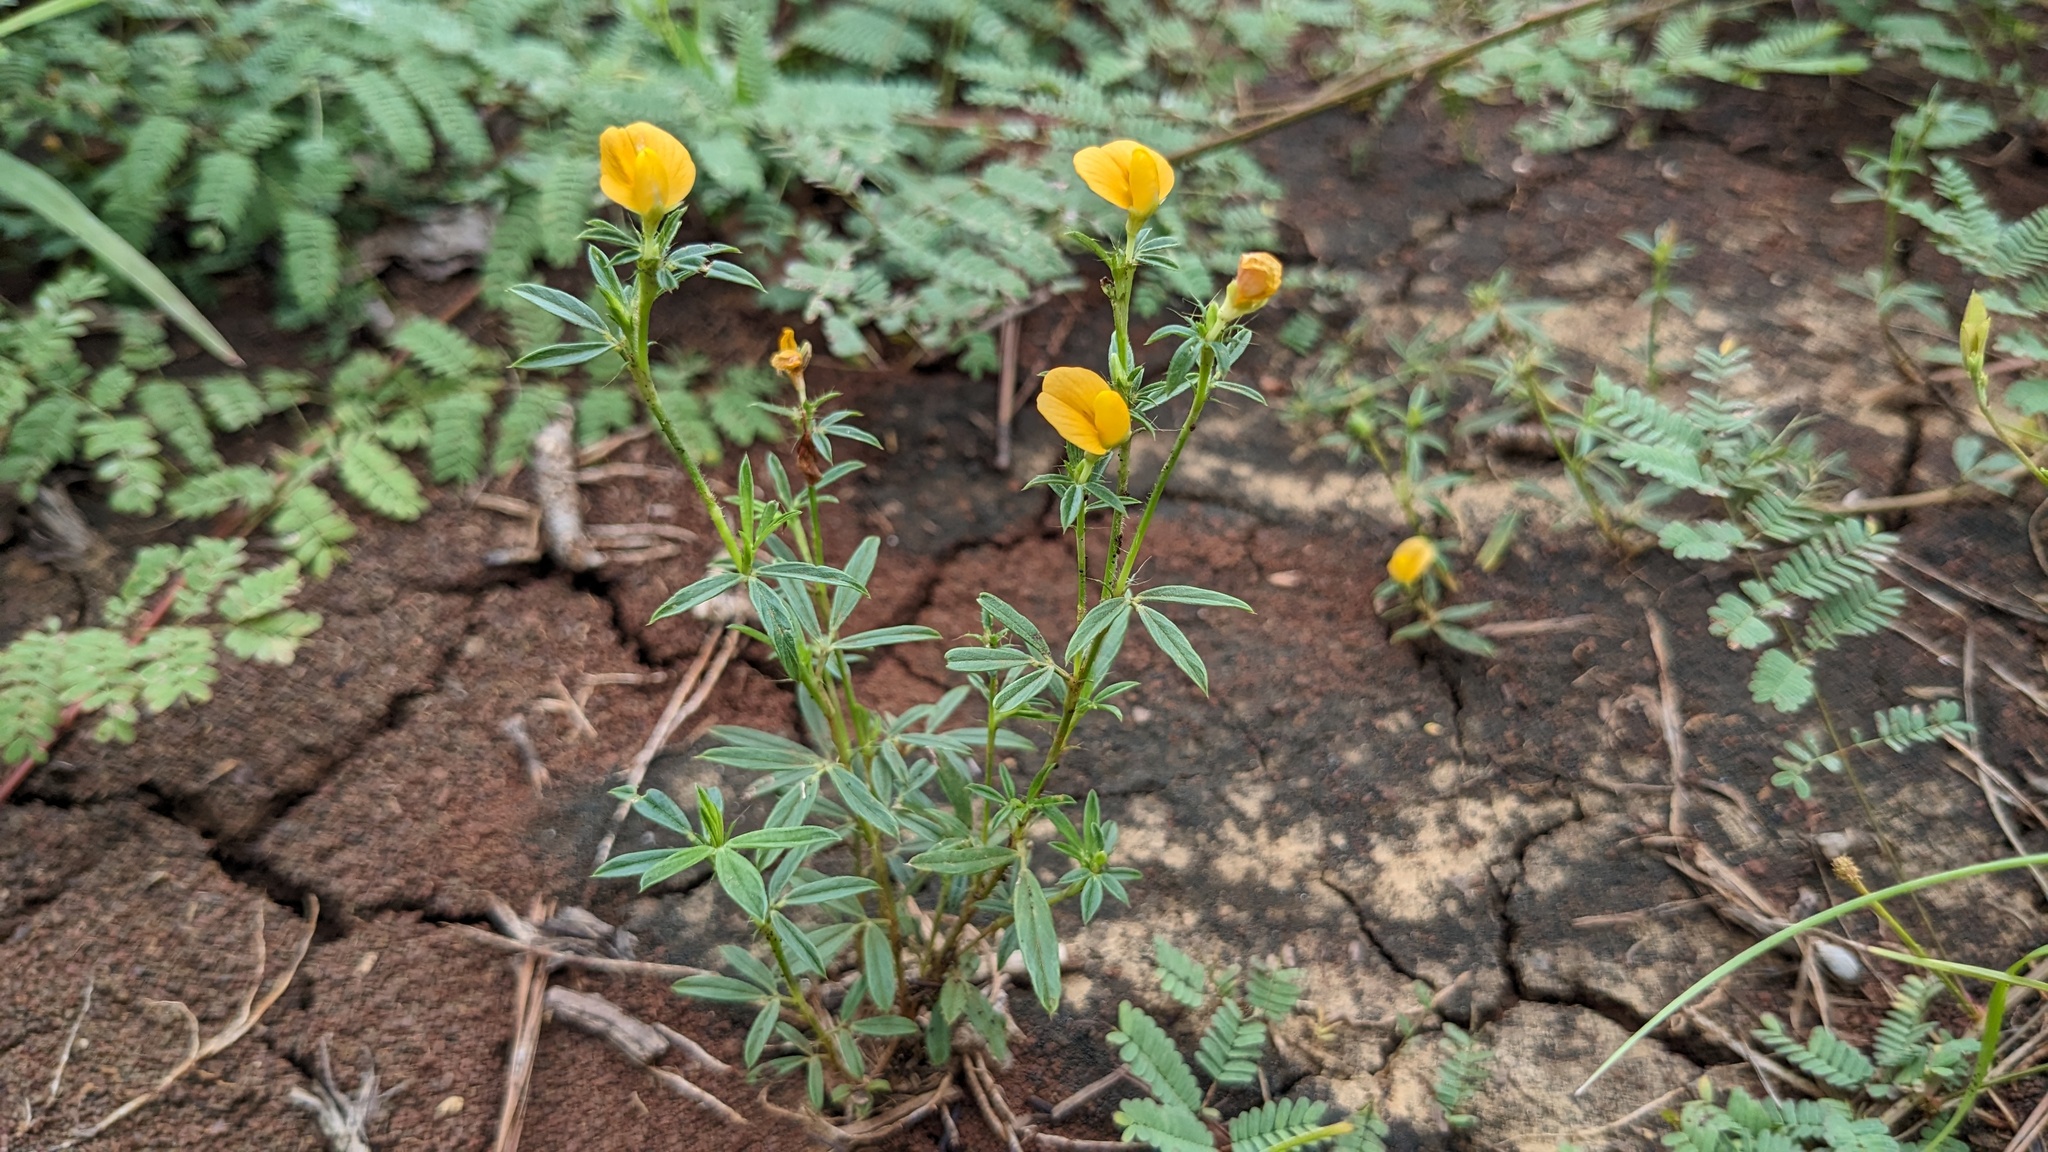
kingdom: Plantae
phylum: Tracheophyta
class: Magnoliopsida
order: Fabales
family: Fabaceae
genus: Stylosanthes
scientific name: Stylosanthes biflora
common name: Two-flower pencil-flower
